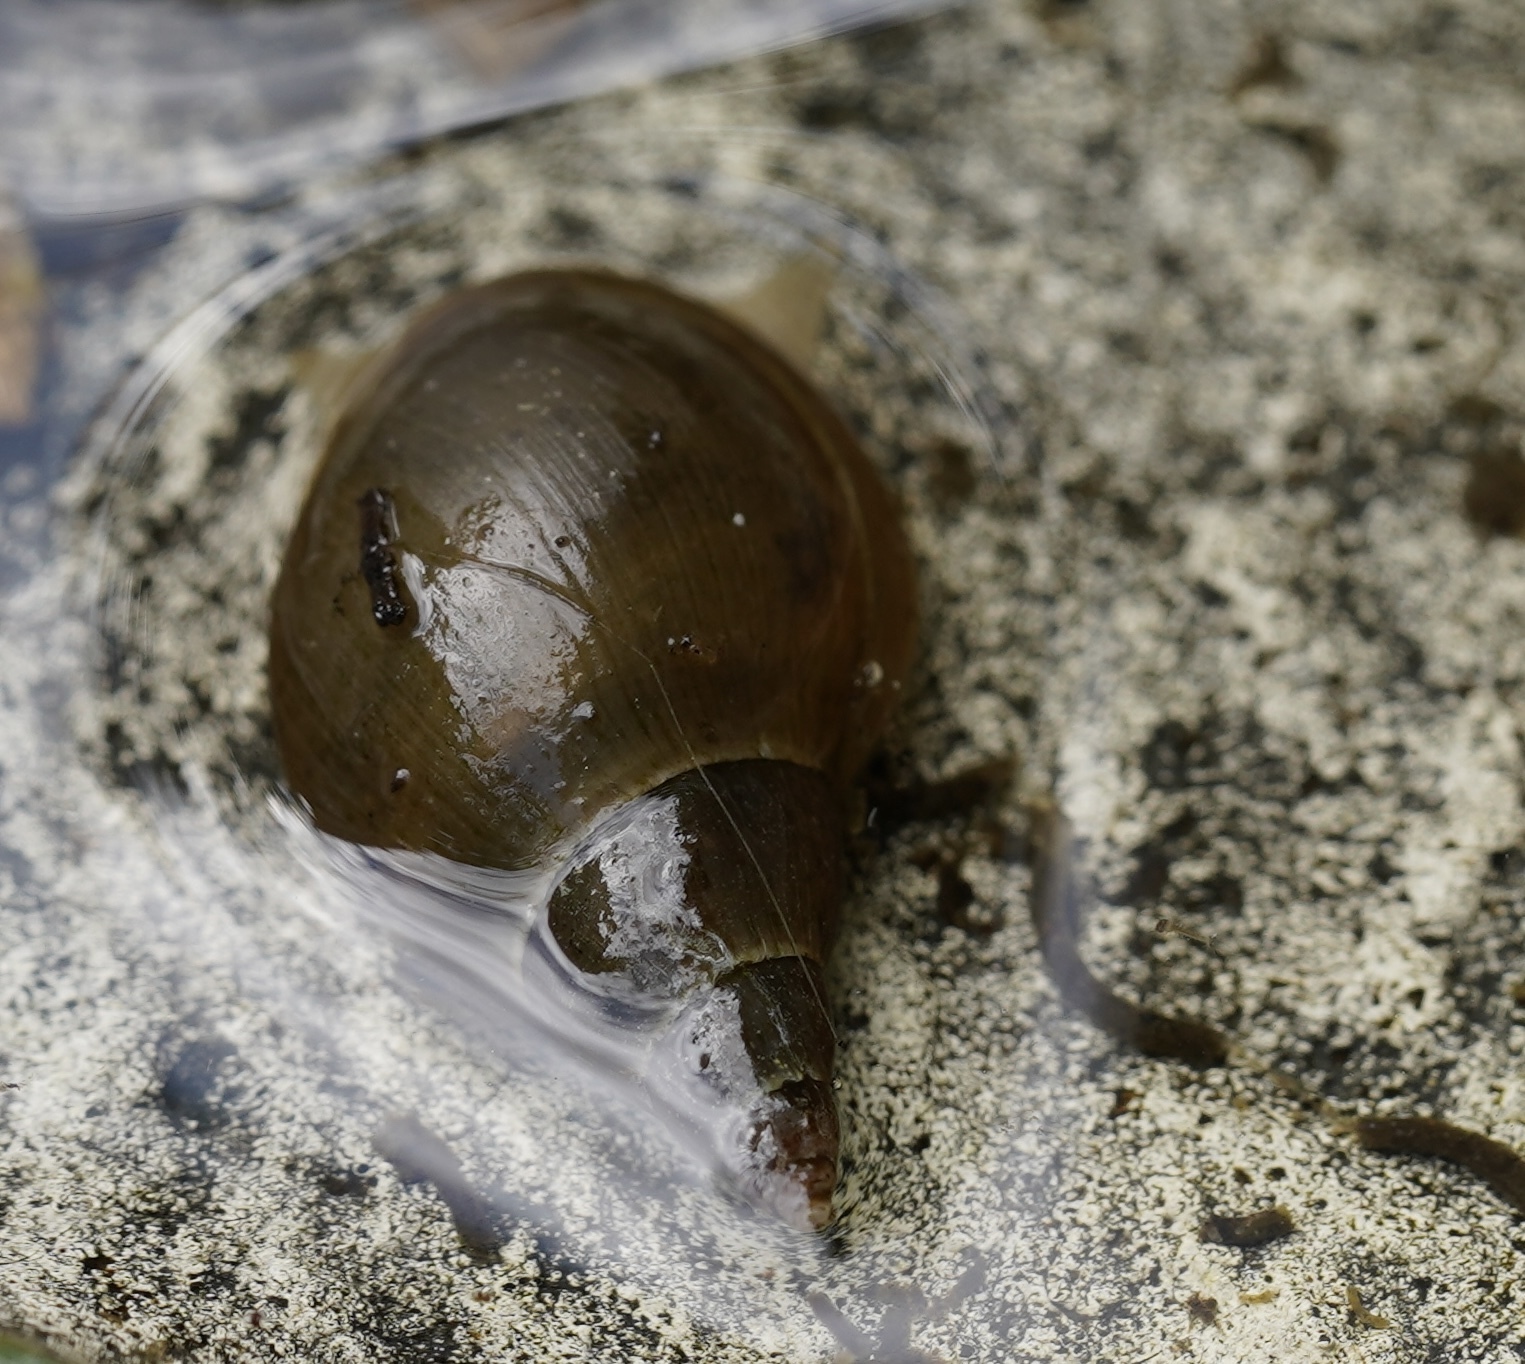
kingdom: Animalia
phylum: Mollusca
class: Gastropoda
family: Lymnaeidae
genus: Lymnaea
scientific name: Lymnaea stagnalis
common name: Great pond snail
